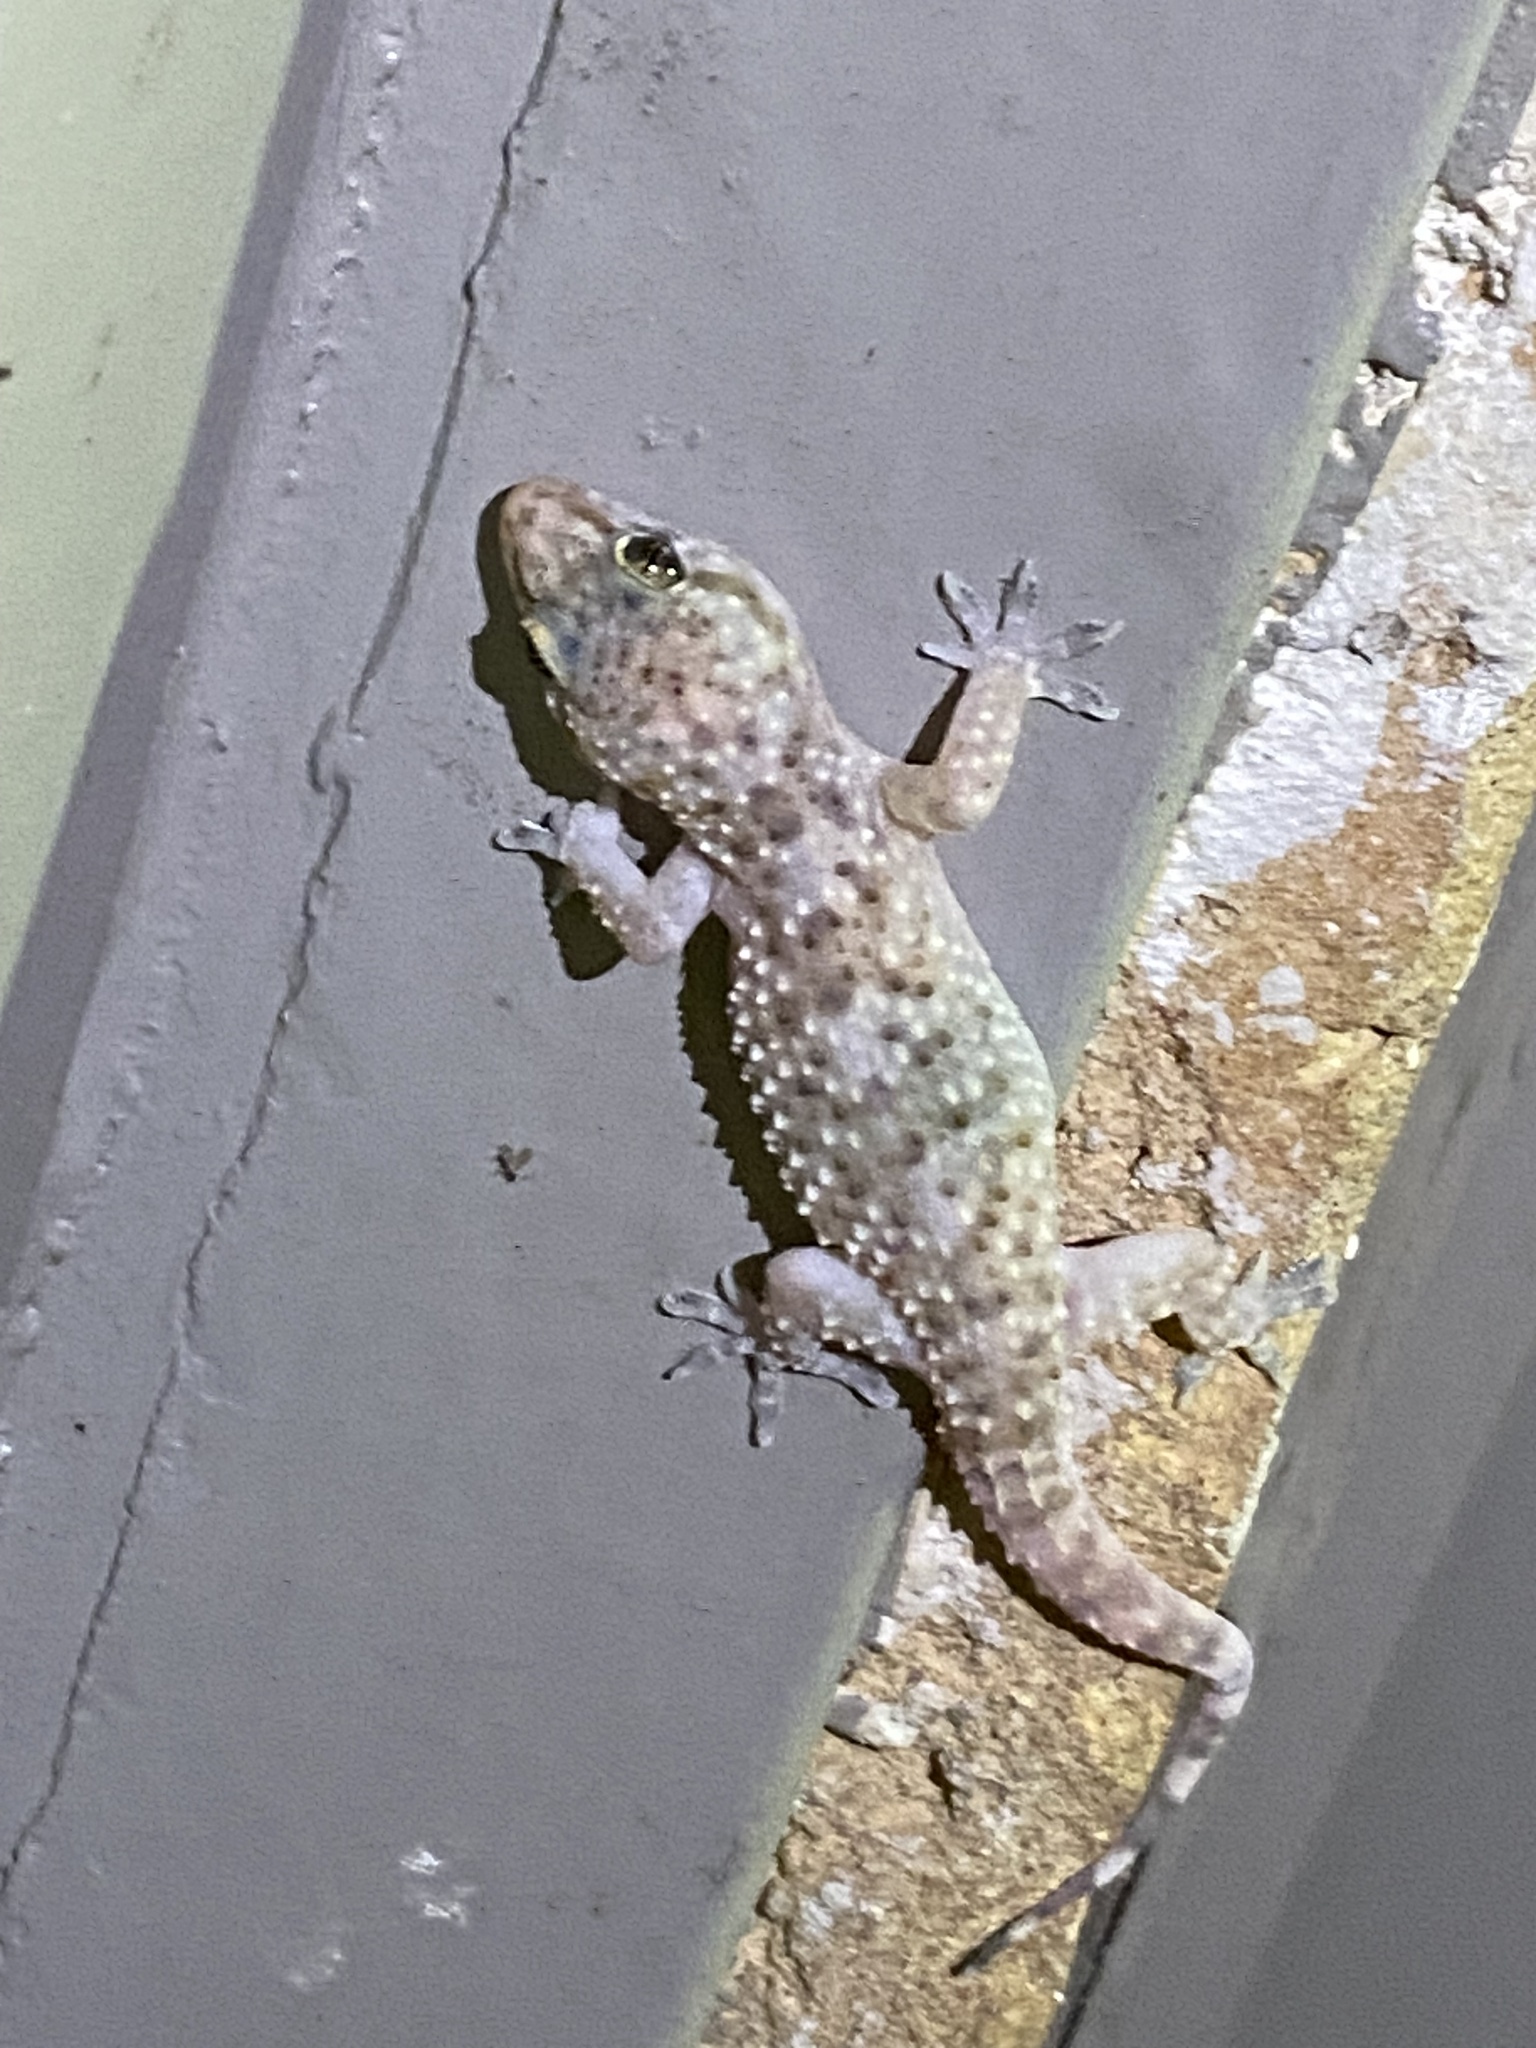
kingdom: Animalia
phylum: Chordata
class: Squamata
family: Gekkonidae
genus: Hemidactylus
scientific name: Hemidactylus turcicus
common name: Turkish gecko
